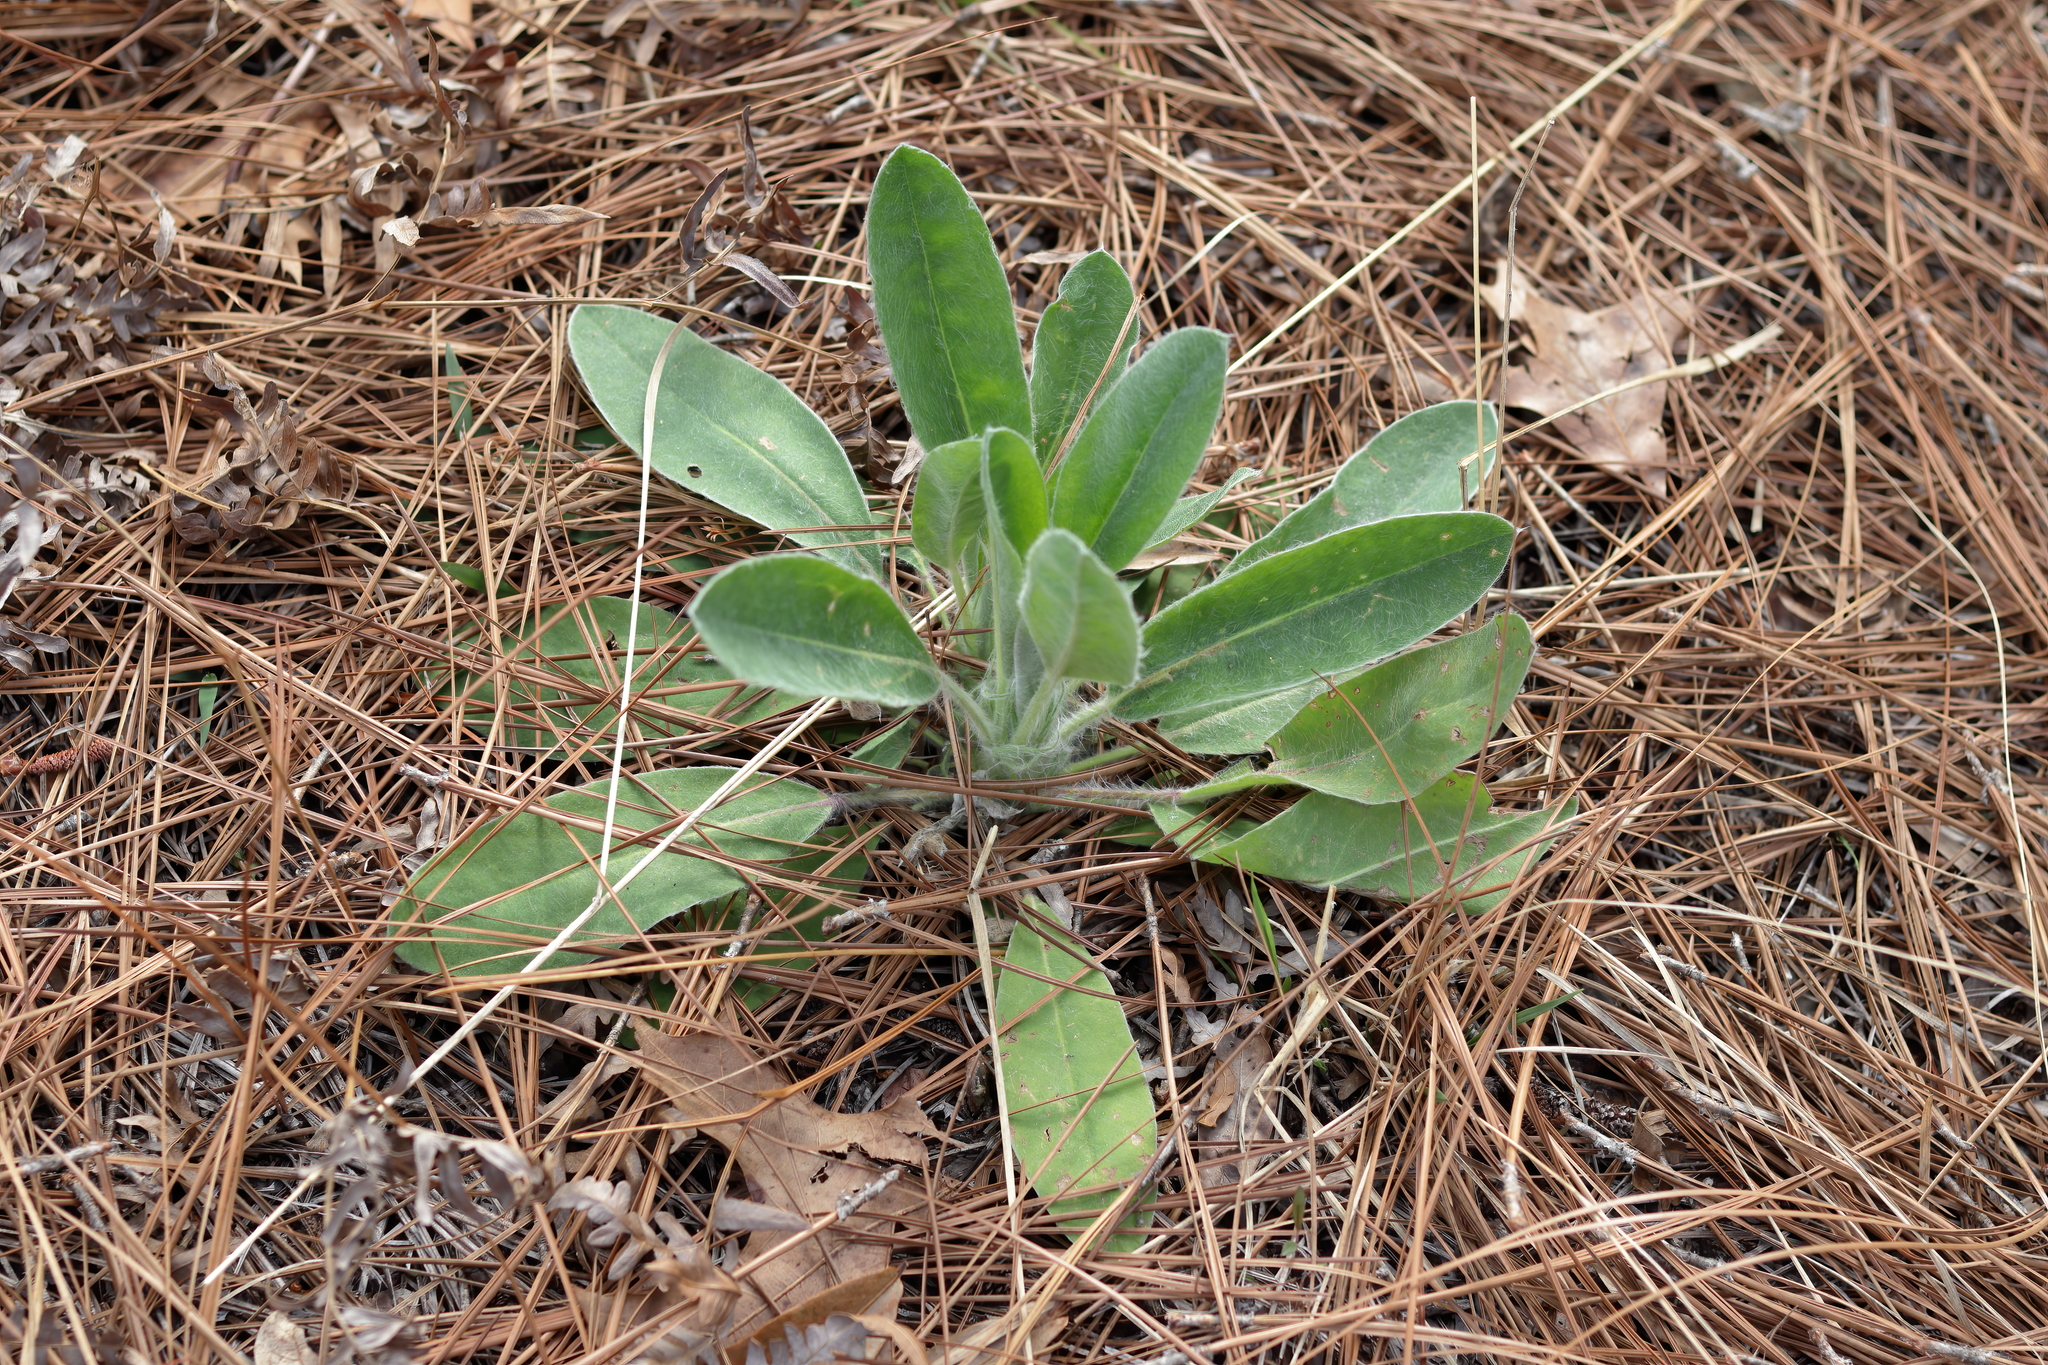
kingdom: Plantae
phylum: Tracheophyta
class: Magnoliopsida
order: Fabales
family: Fabaceae
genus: Lupinus
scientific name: Lupinus villosus
